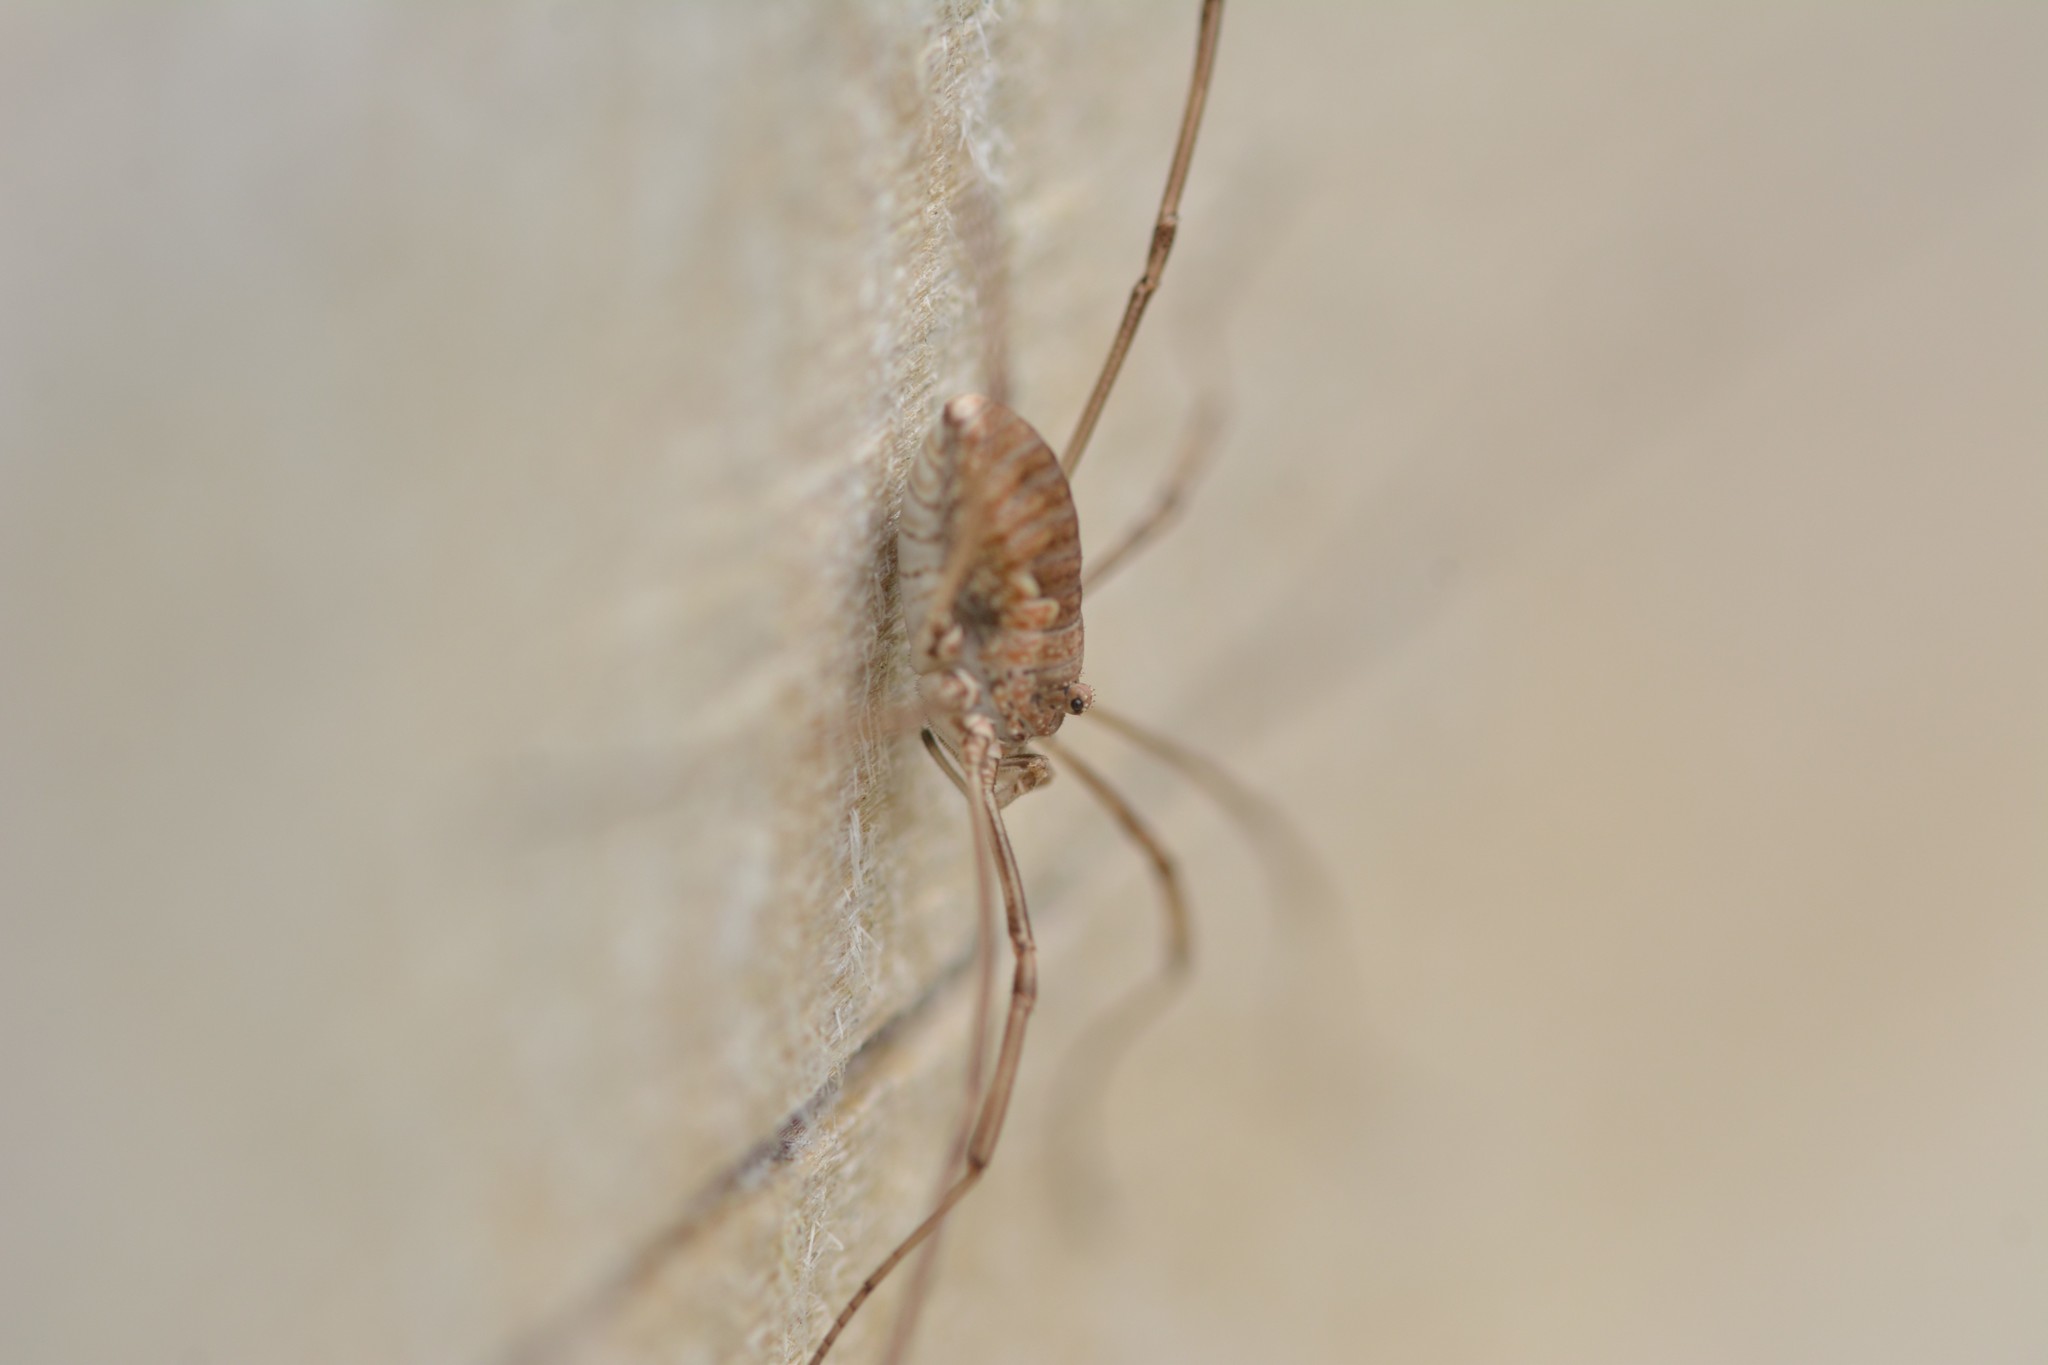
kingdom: Animalia
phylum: Arthropoda
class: Arachnida
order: Opiliones
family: Phalangiidae
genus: Phalangium
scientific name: Phalangium opilio
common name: Daddy longleg
